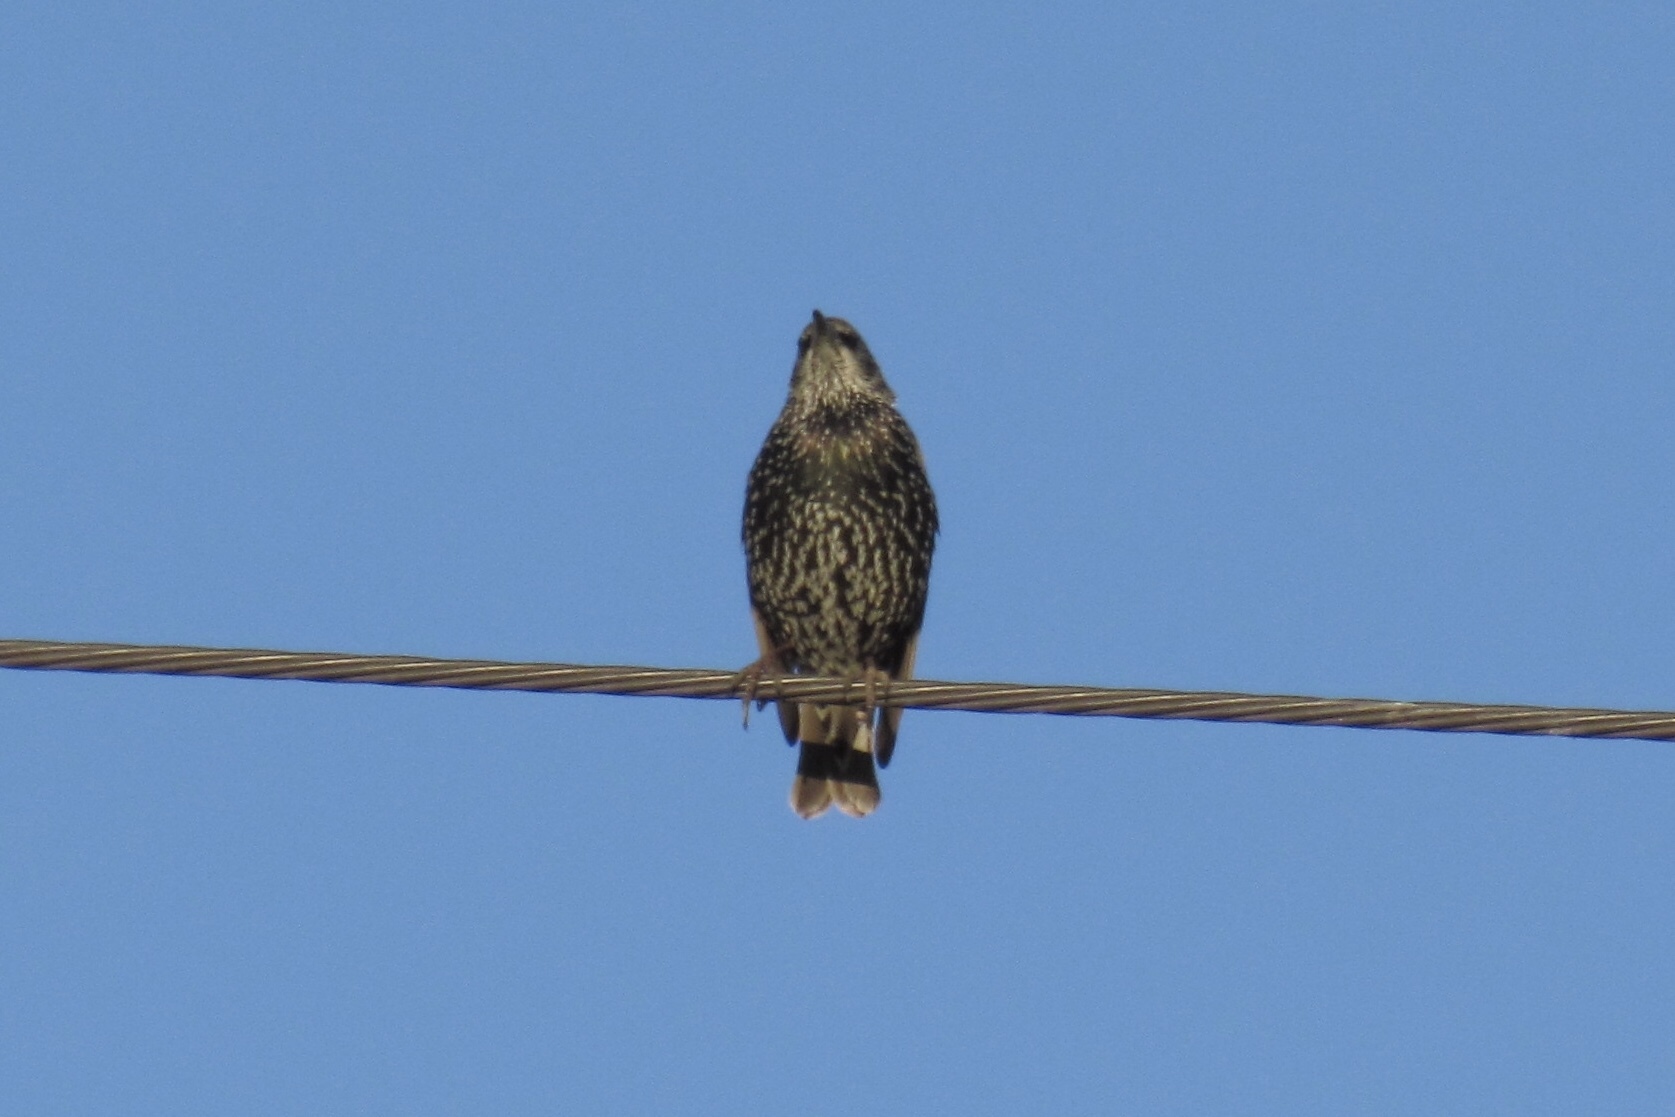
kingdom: Animalia
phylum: Chordata
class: Aves
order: Passeriformes
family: Sturnidae
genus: Sturnus
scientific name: Sturnus vulgaris
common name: Common starling
